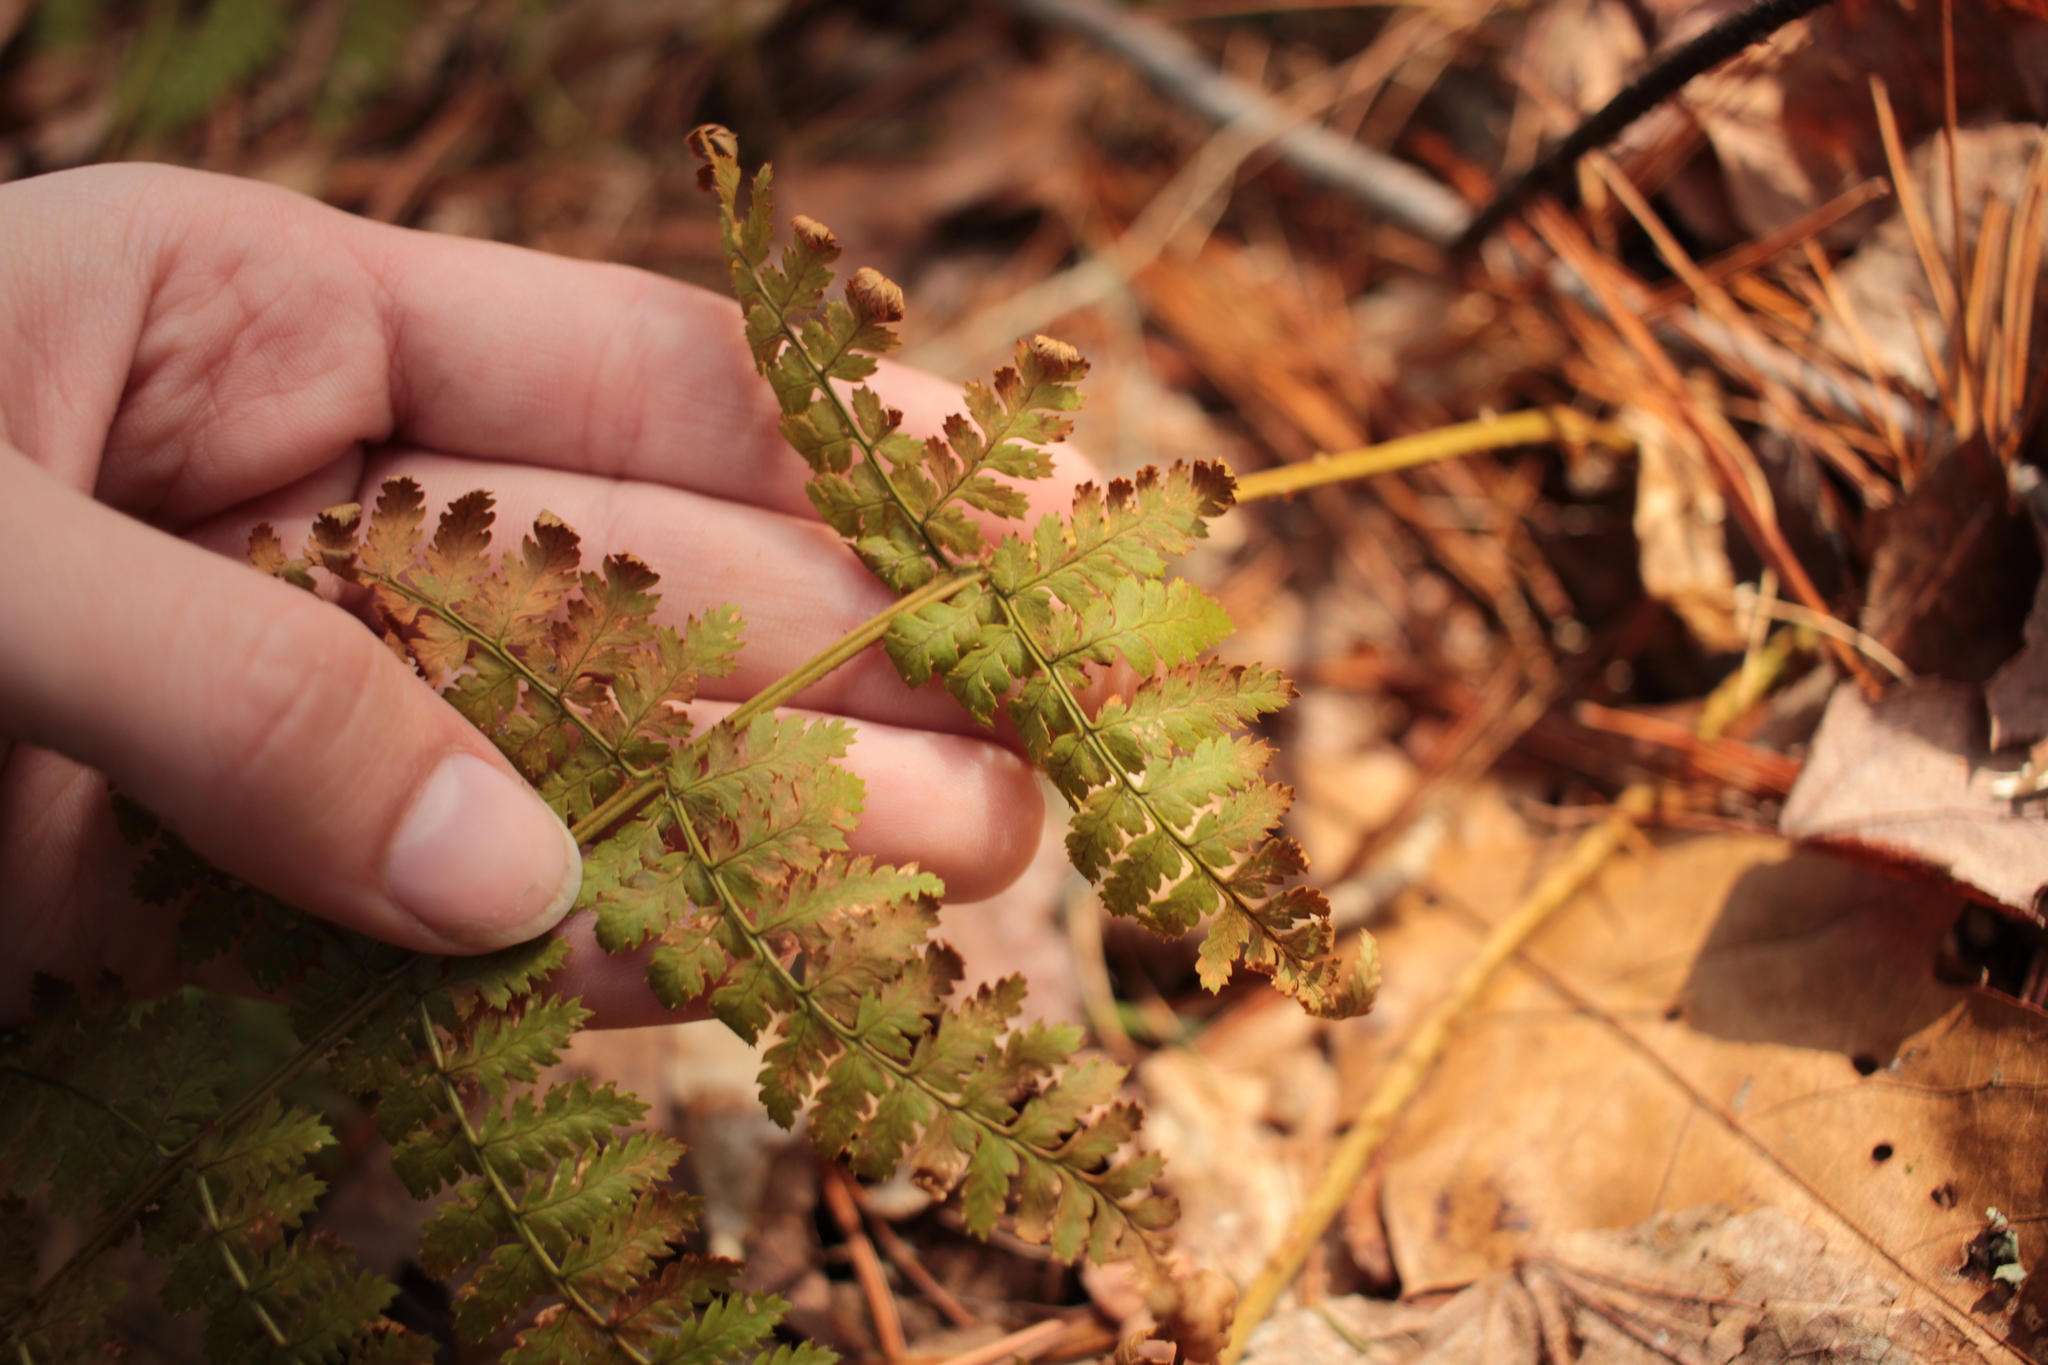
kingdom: Plantae
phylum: Tracheophyta
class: Polypodiopsida
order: Polypodiales
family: Dryopteridaceae
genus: Dryopteris
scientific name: Dryopteris intermedia
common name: Evergreen wood fern
